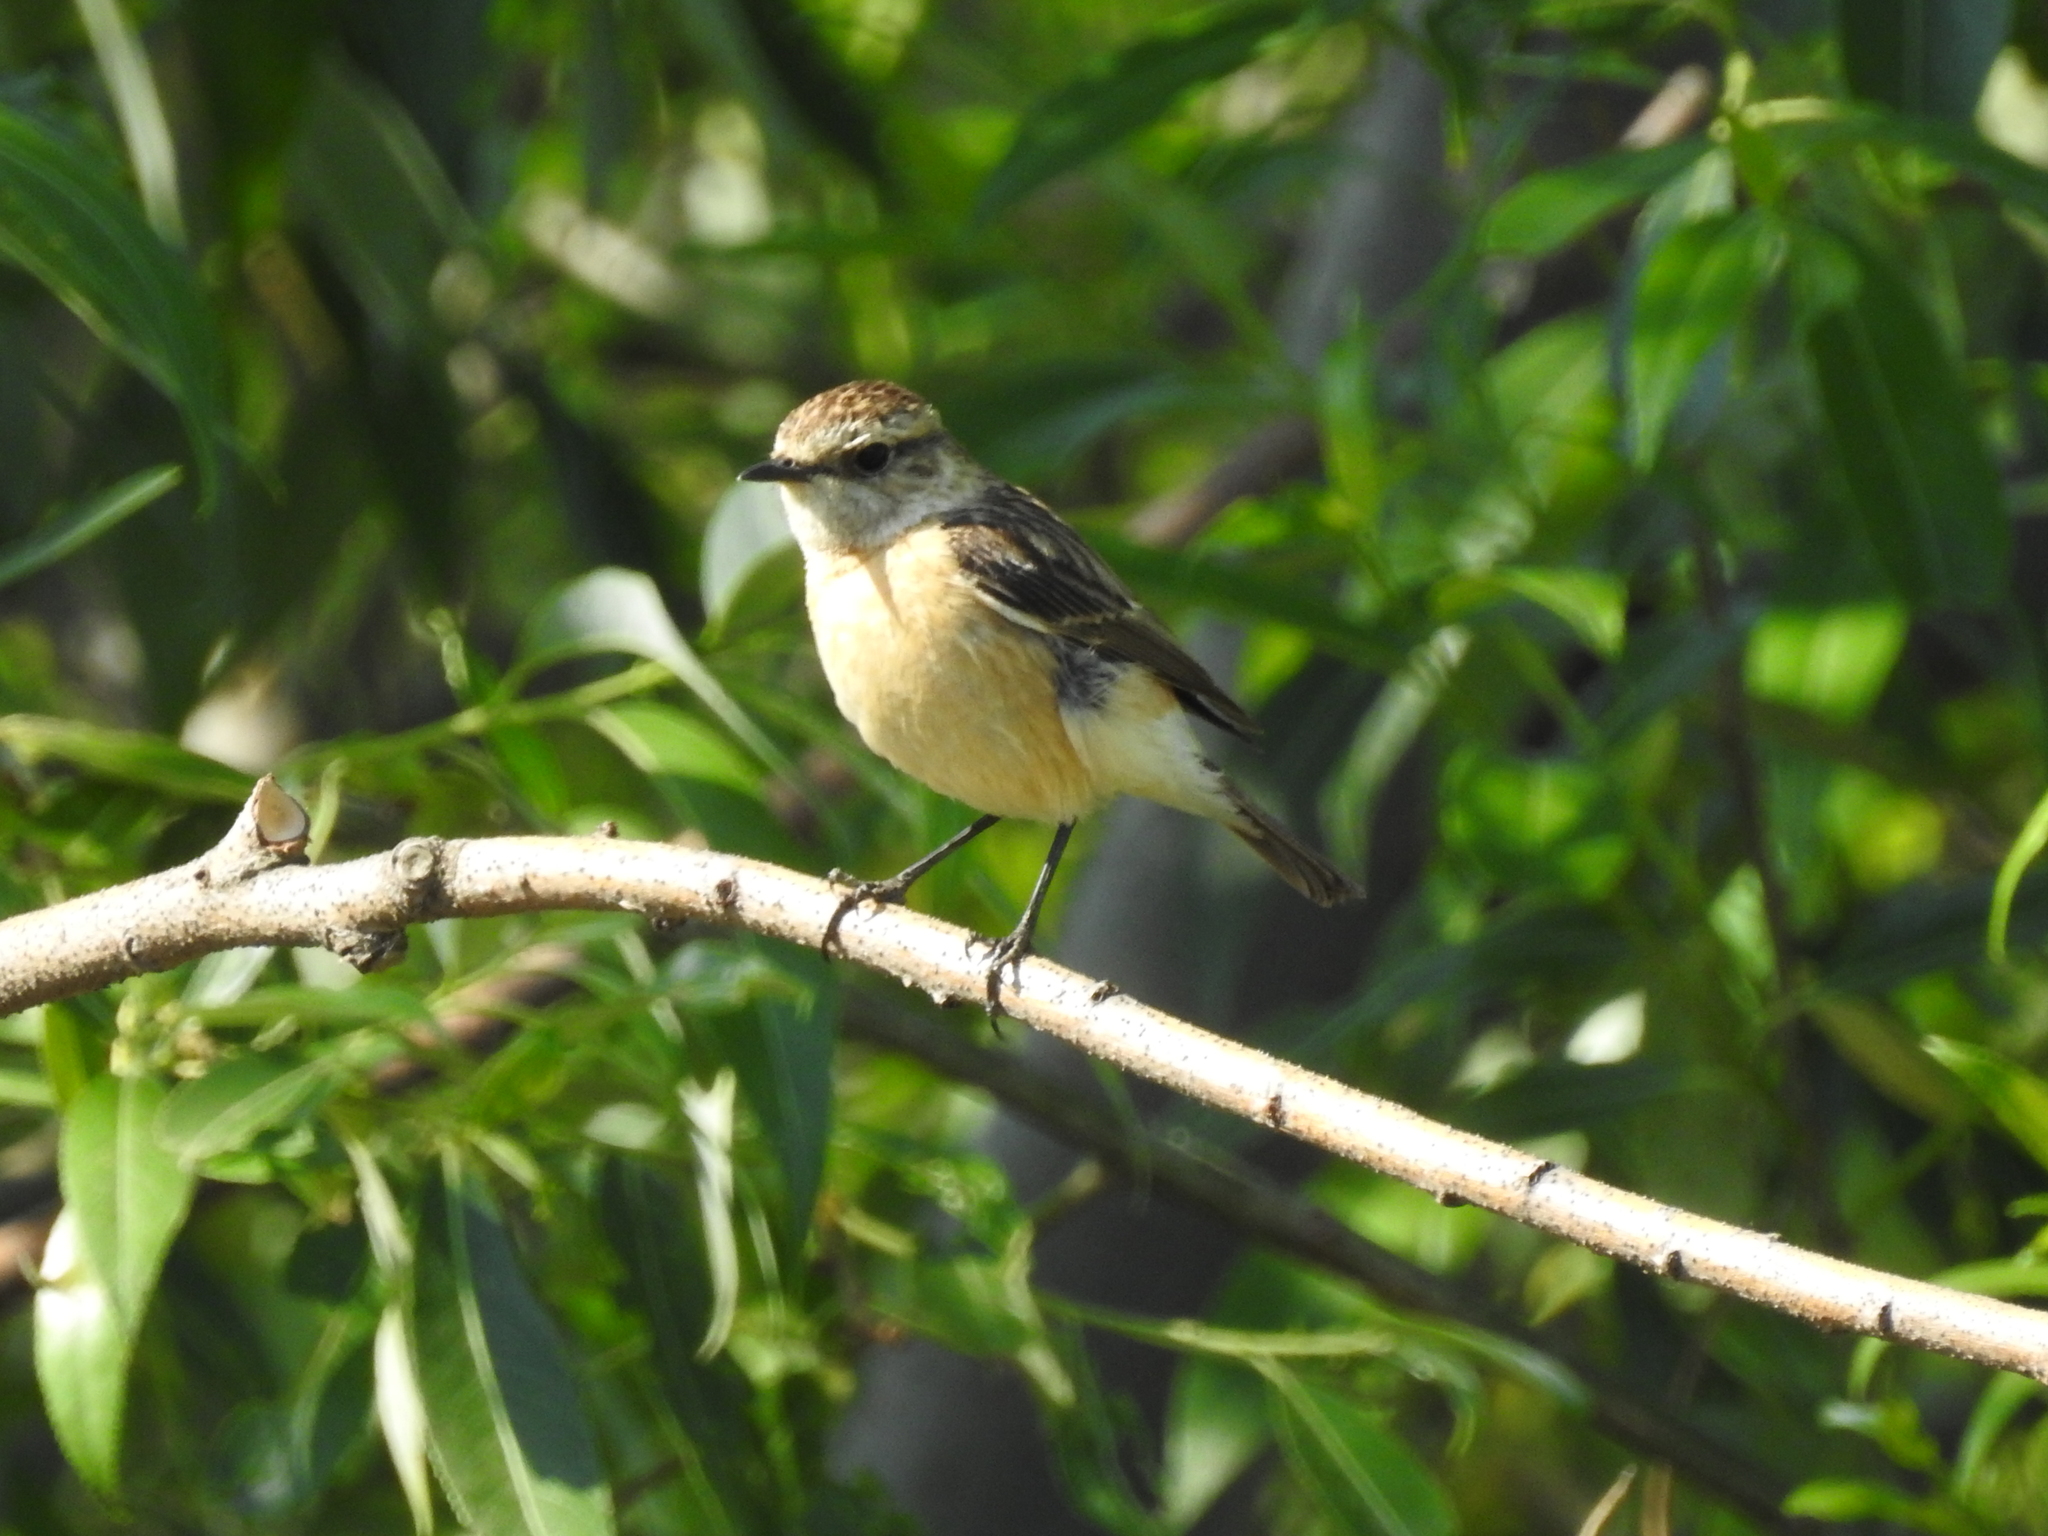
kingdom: Animalia
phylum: Chordata
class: Aves
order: Passeriformes
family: Muscicapidae
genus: Saxicola
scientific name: Saxicola maurus
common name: Siberian stonechat
